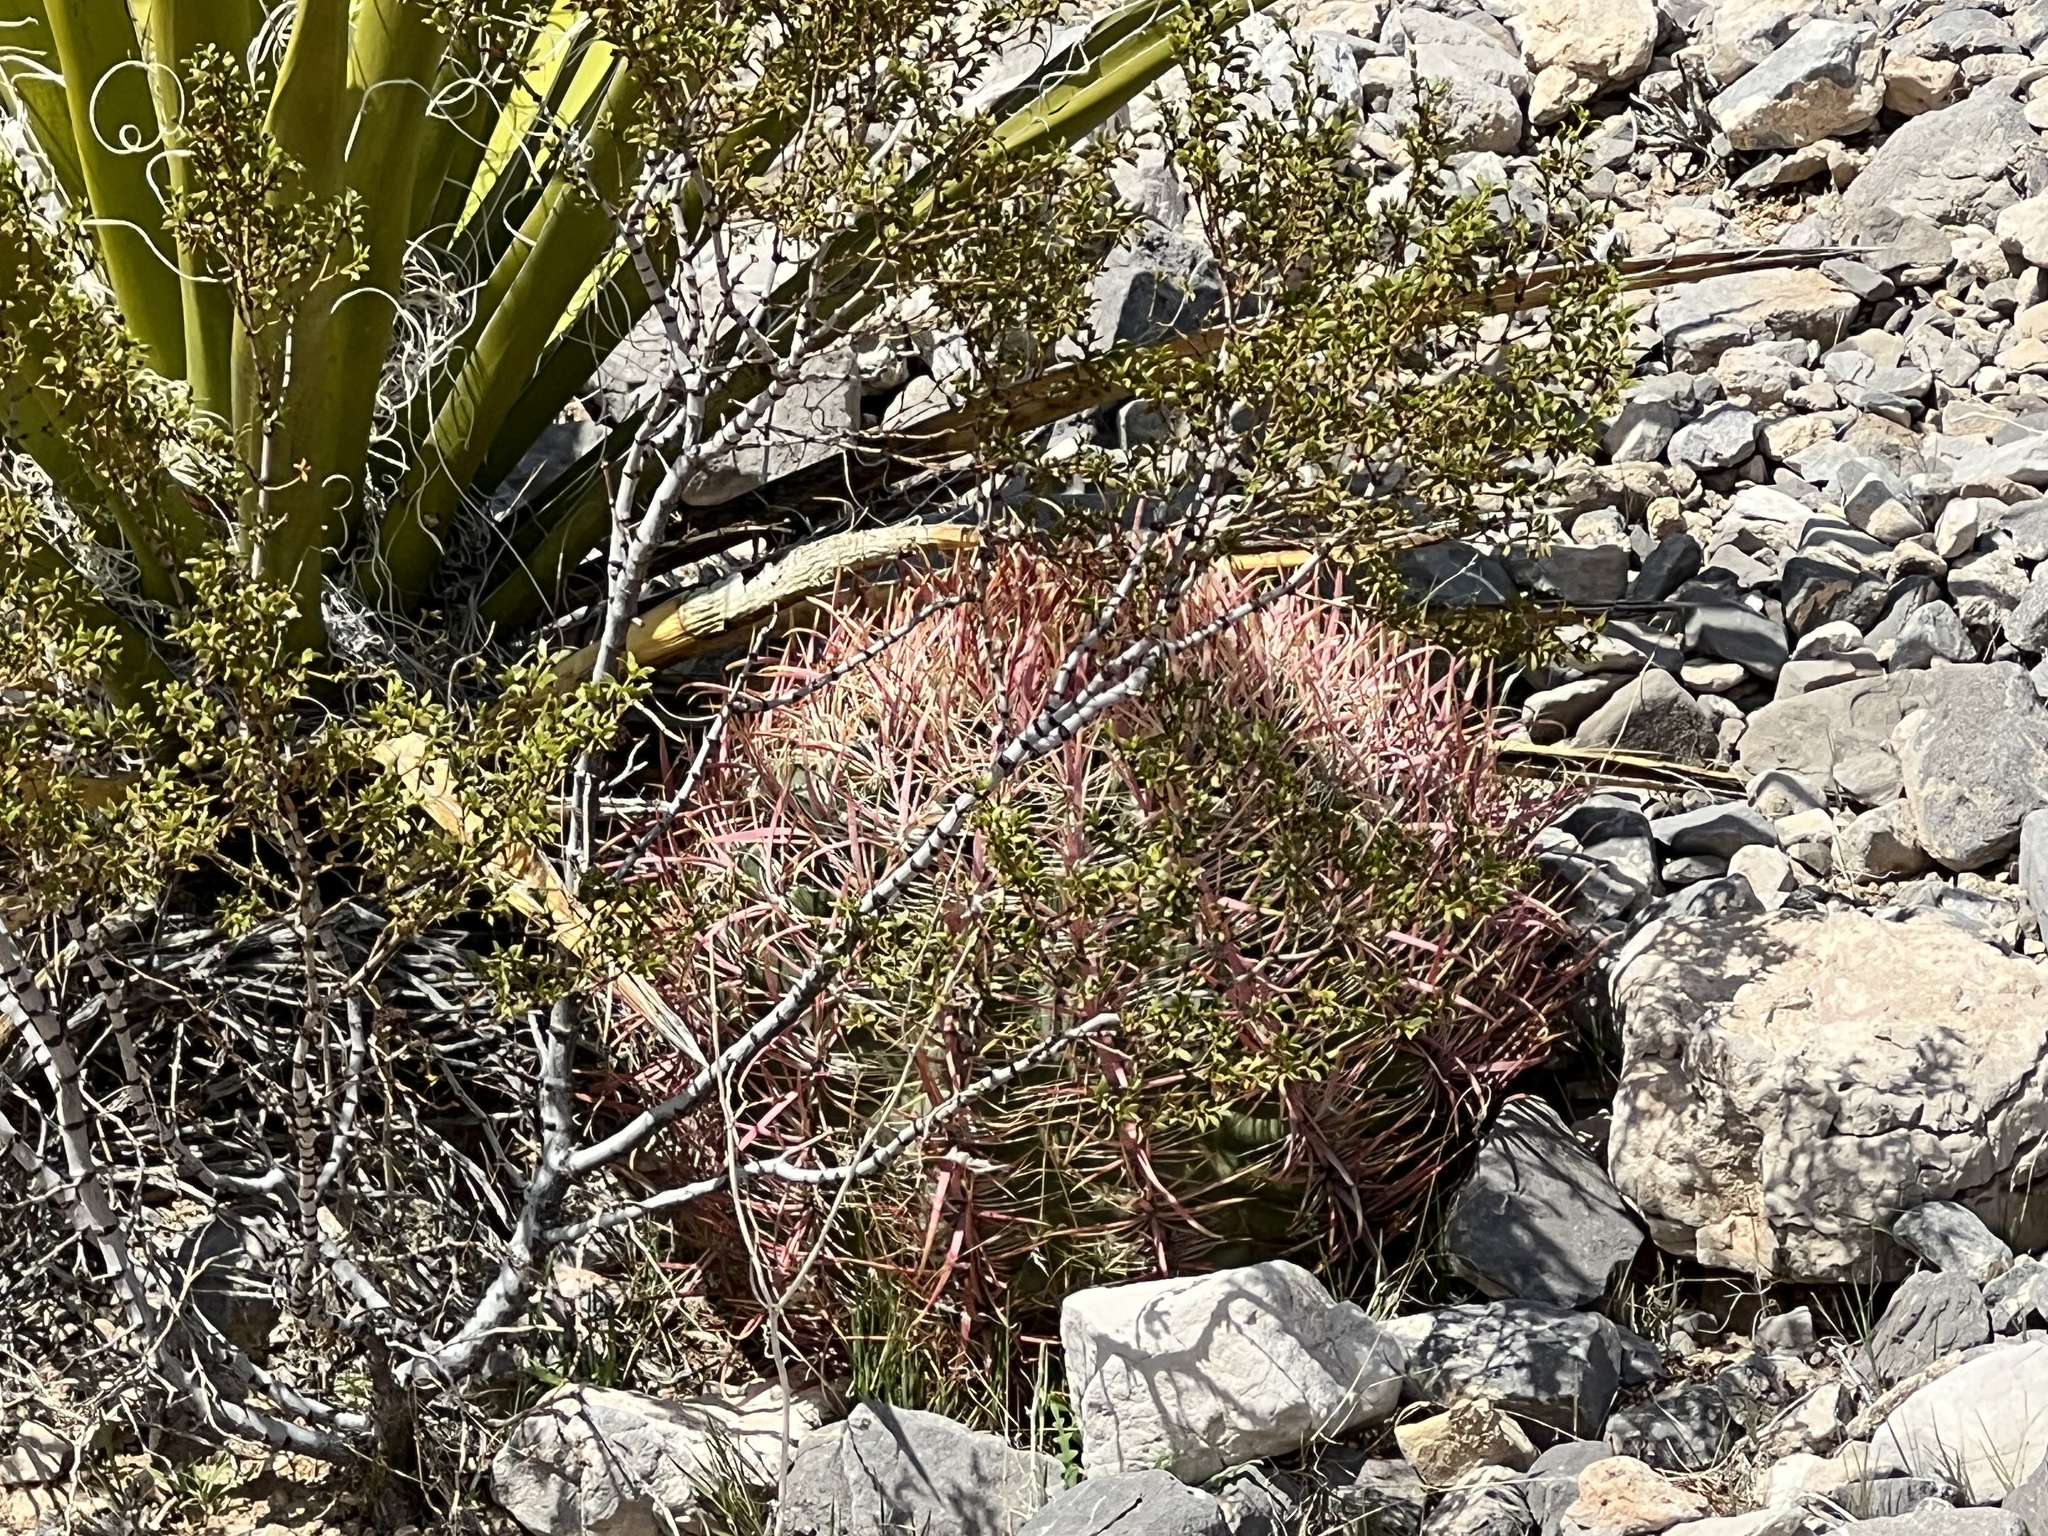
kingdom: Plantae
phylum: Tracheophyta
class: Magnoliopsida
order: Caryophyllales
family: Cactaceae
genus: Ferocactus
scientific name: Ferocactus cylindraceus
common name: California barrel cactus
